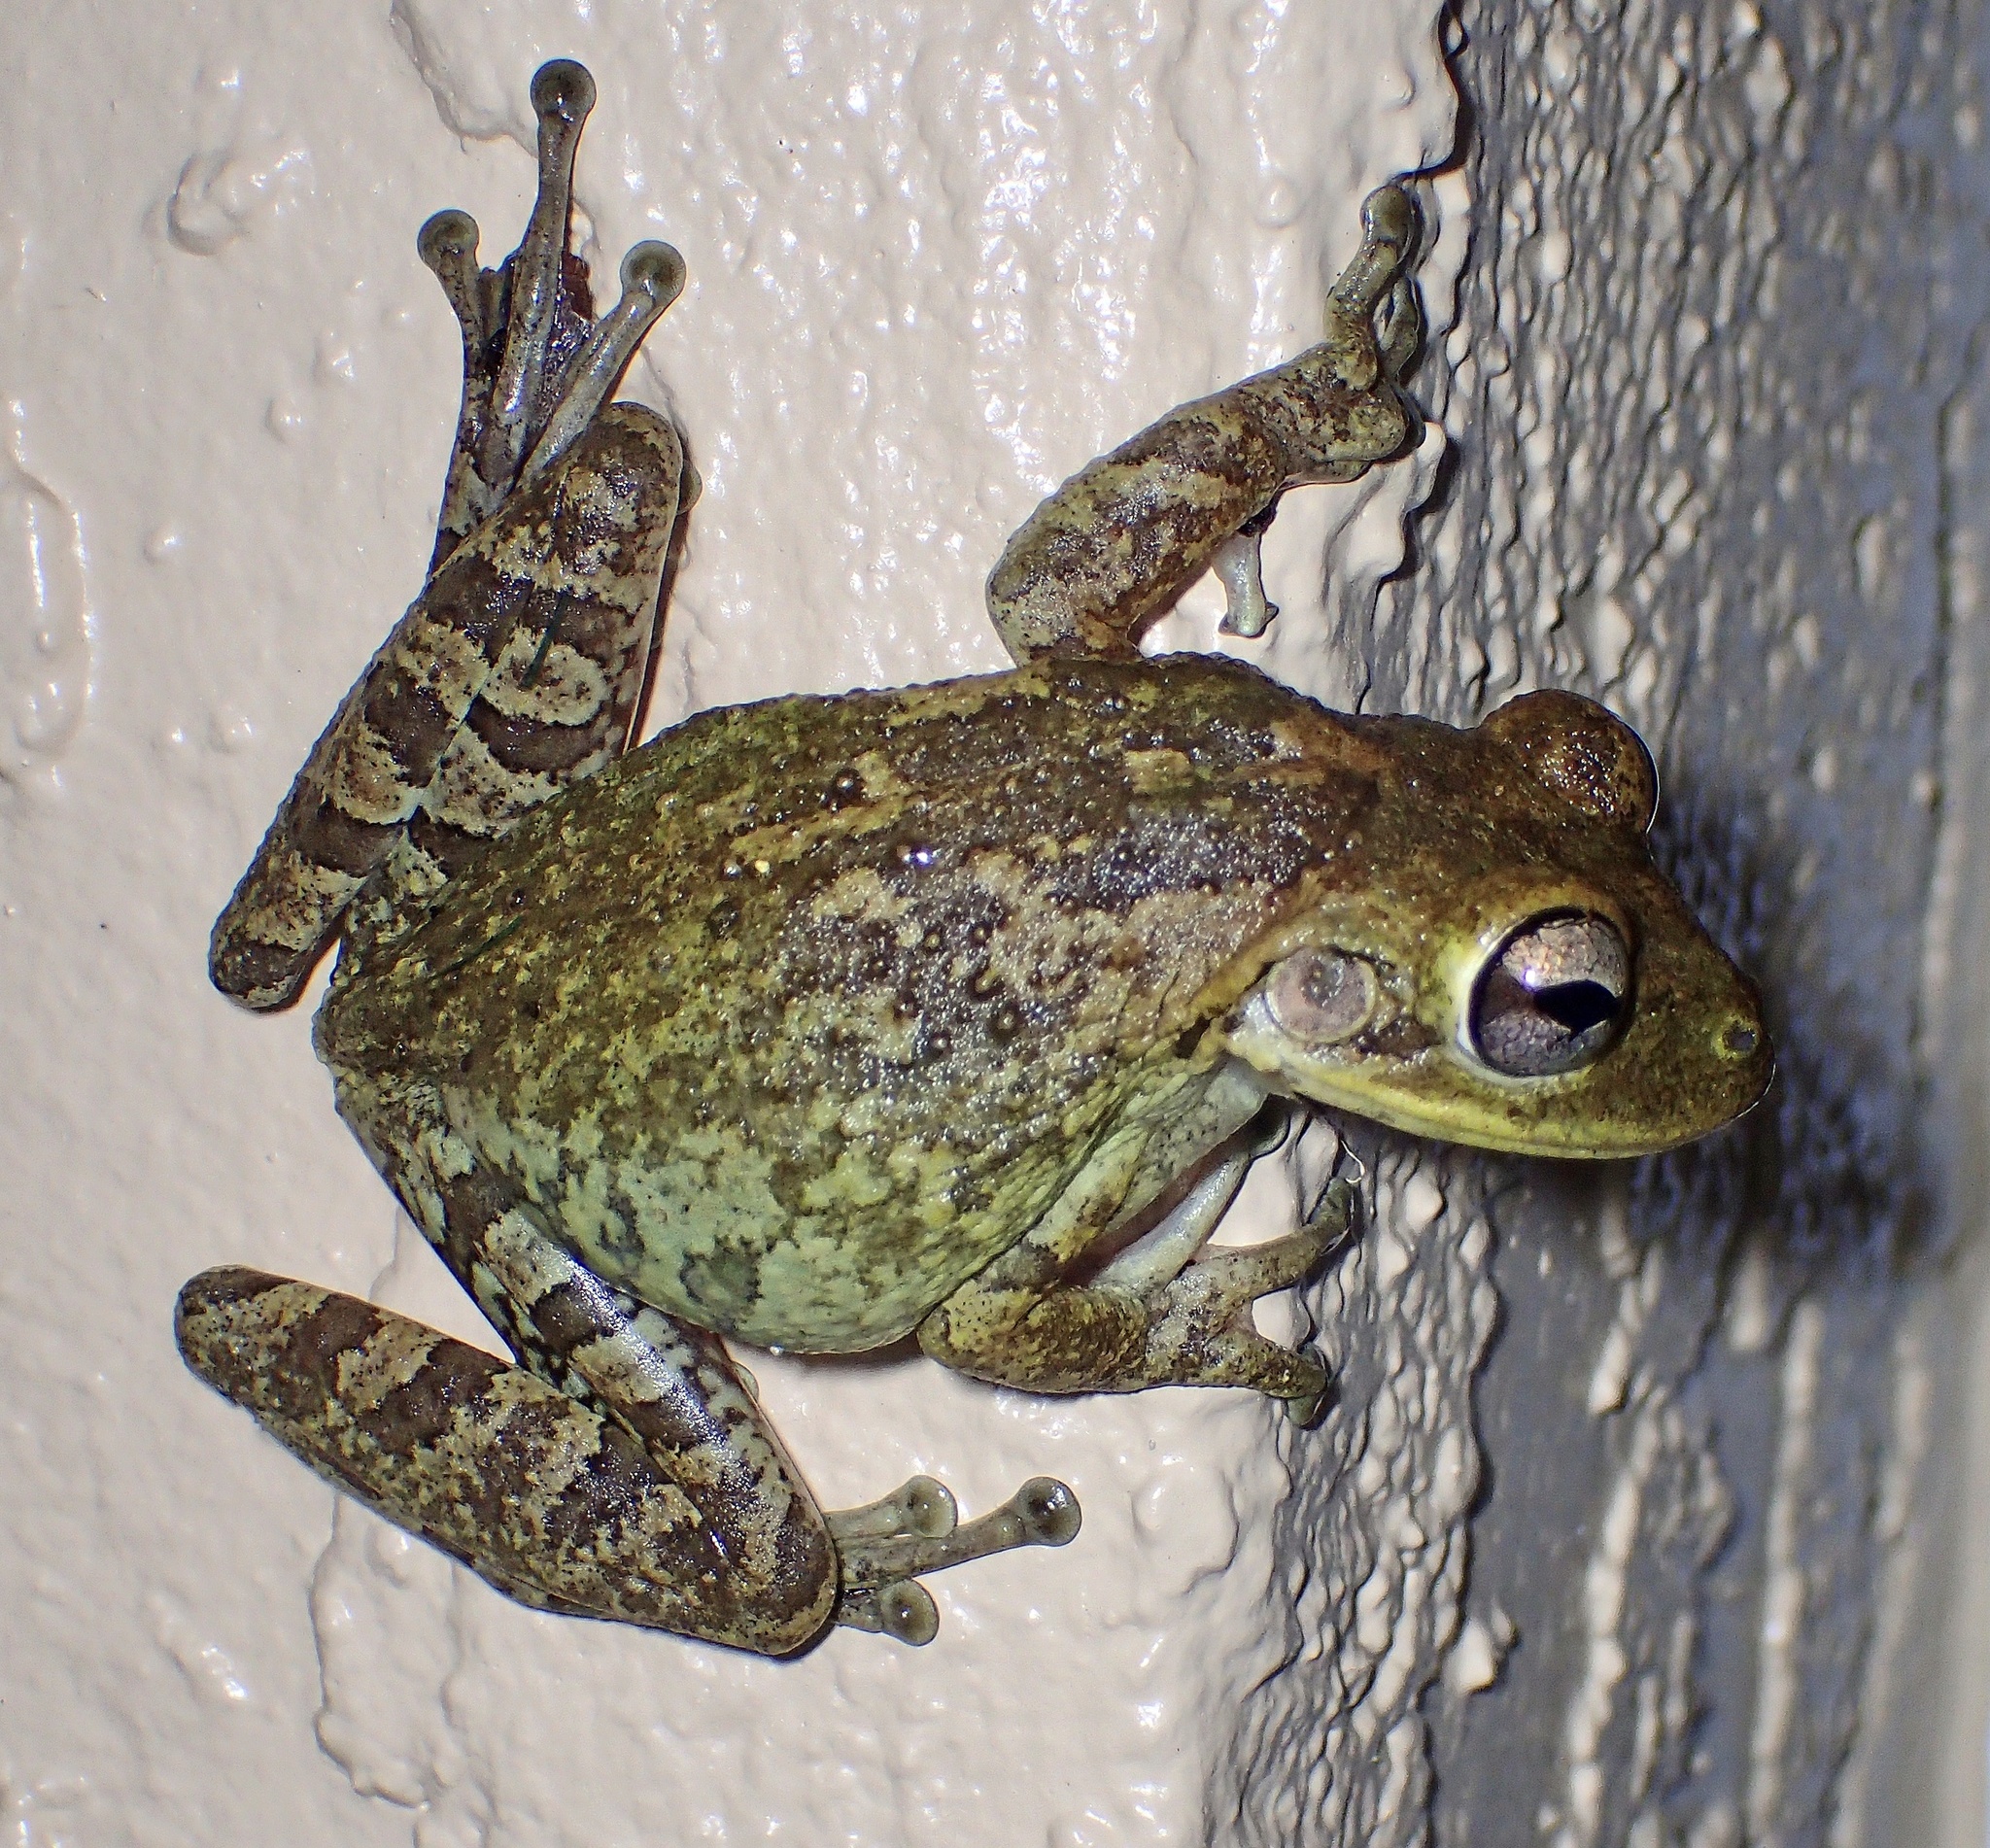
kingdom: Animalia
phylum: Chordata
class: Amphibia
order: Anura
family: Hylidae
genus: Osteopilus
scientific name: Osteopilus septentrionalis
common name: Cuban treefrog
